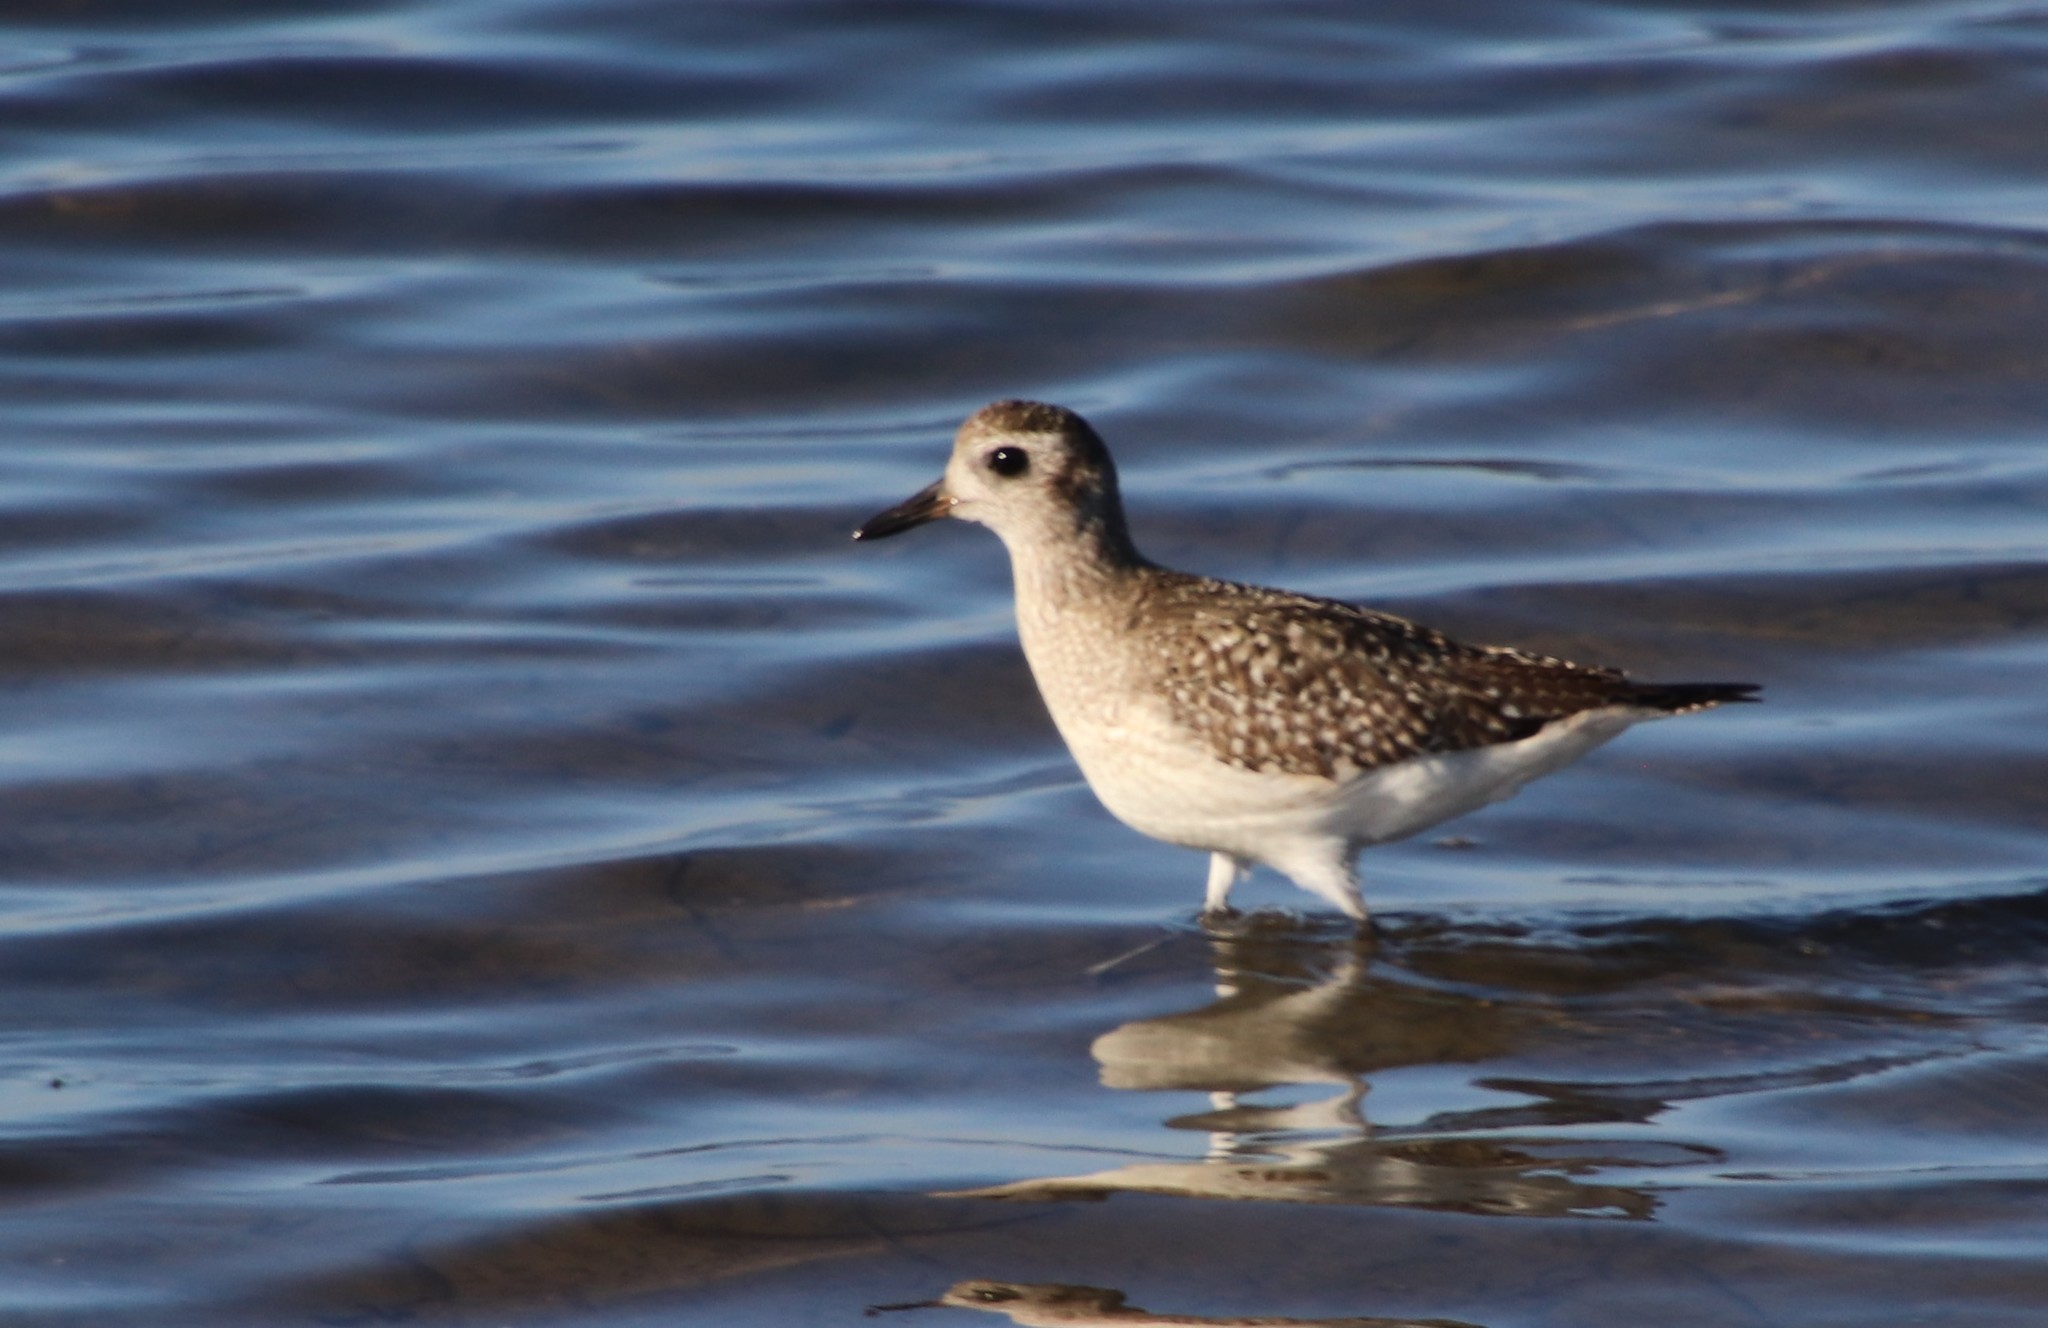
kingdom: Animalia
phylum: Chordata
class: Aves
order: Charadriiformes
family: Charadriidae
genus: Pluvialis
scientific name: Pluvialis squatarola
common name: Grey plover
